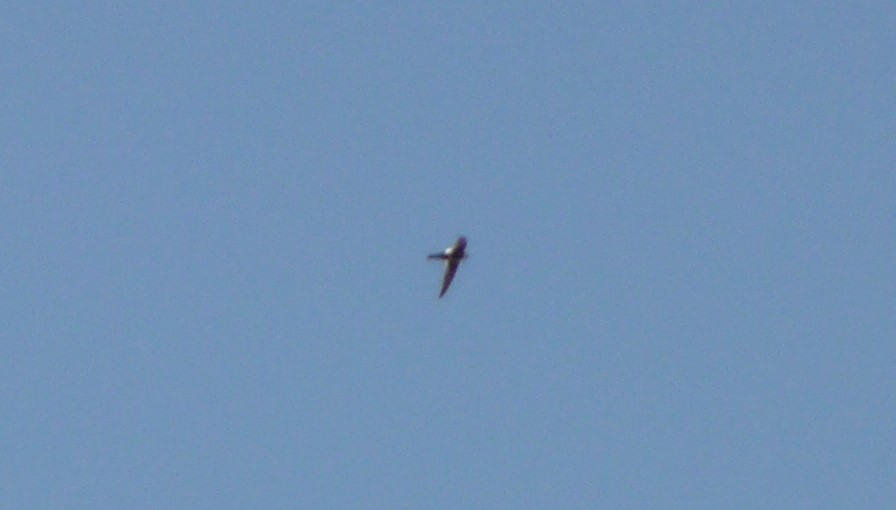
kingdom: Animalia
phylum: Chordata
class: Aves
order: Apodiformes
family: Apodidae
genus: Aeronautes
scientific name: Aeronautes saxatalis
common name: White-throated swift
